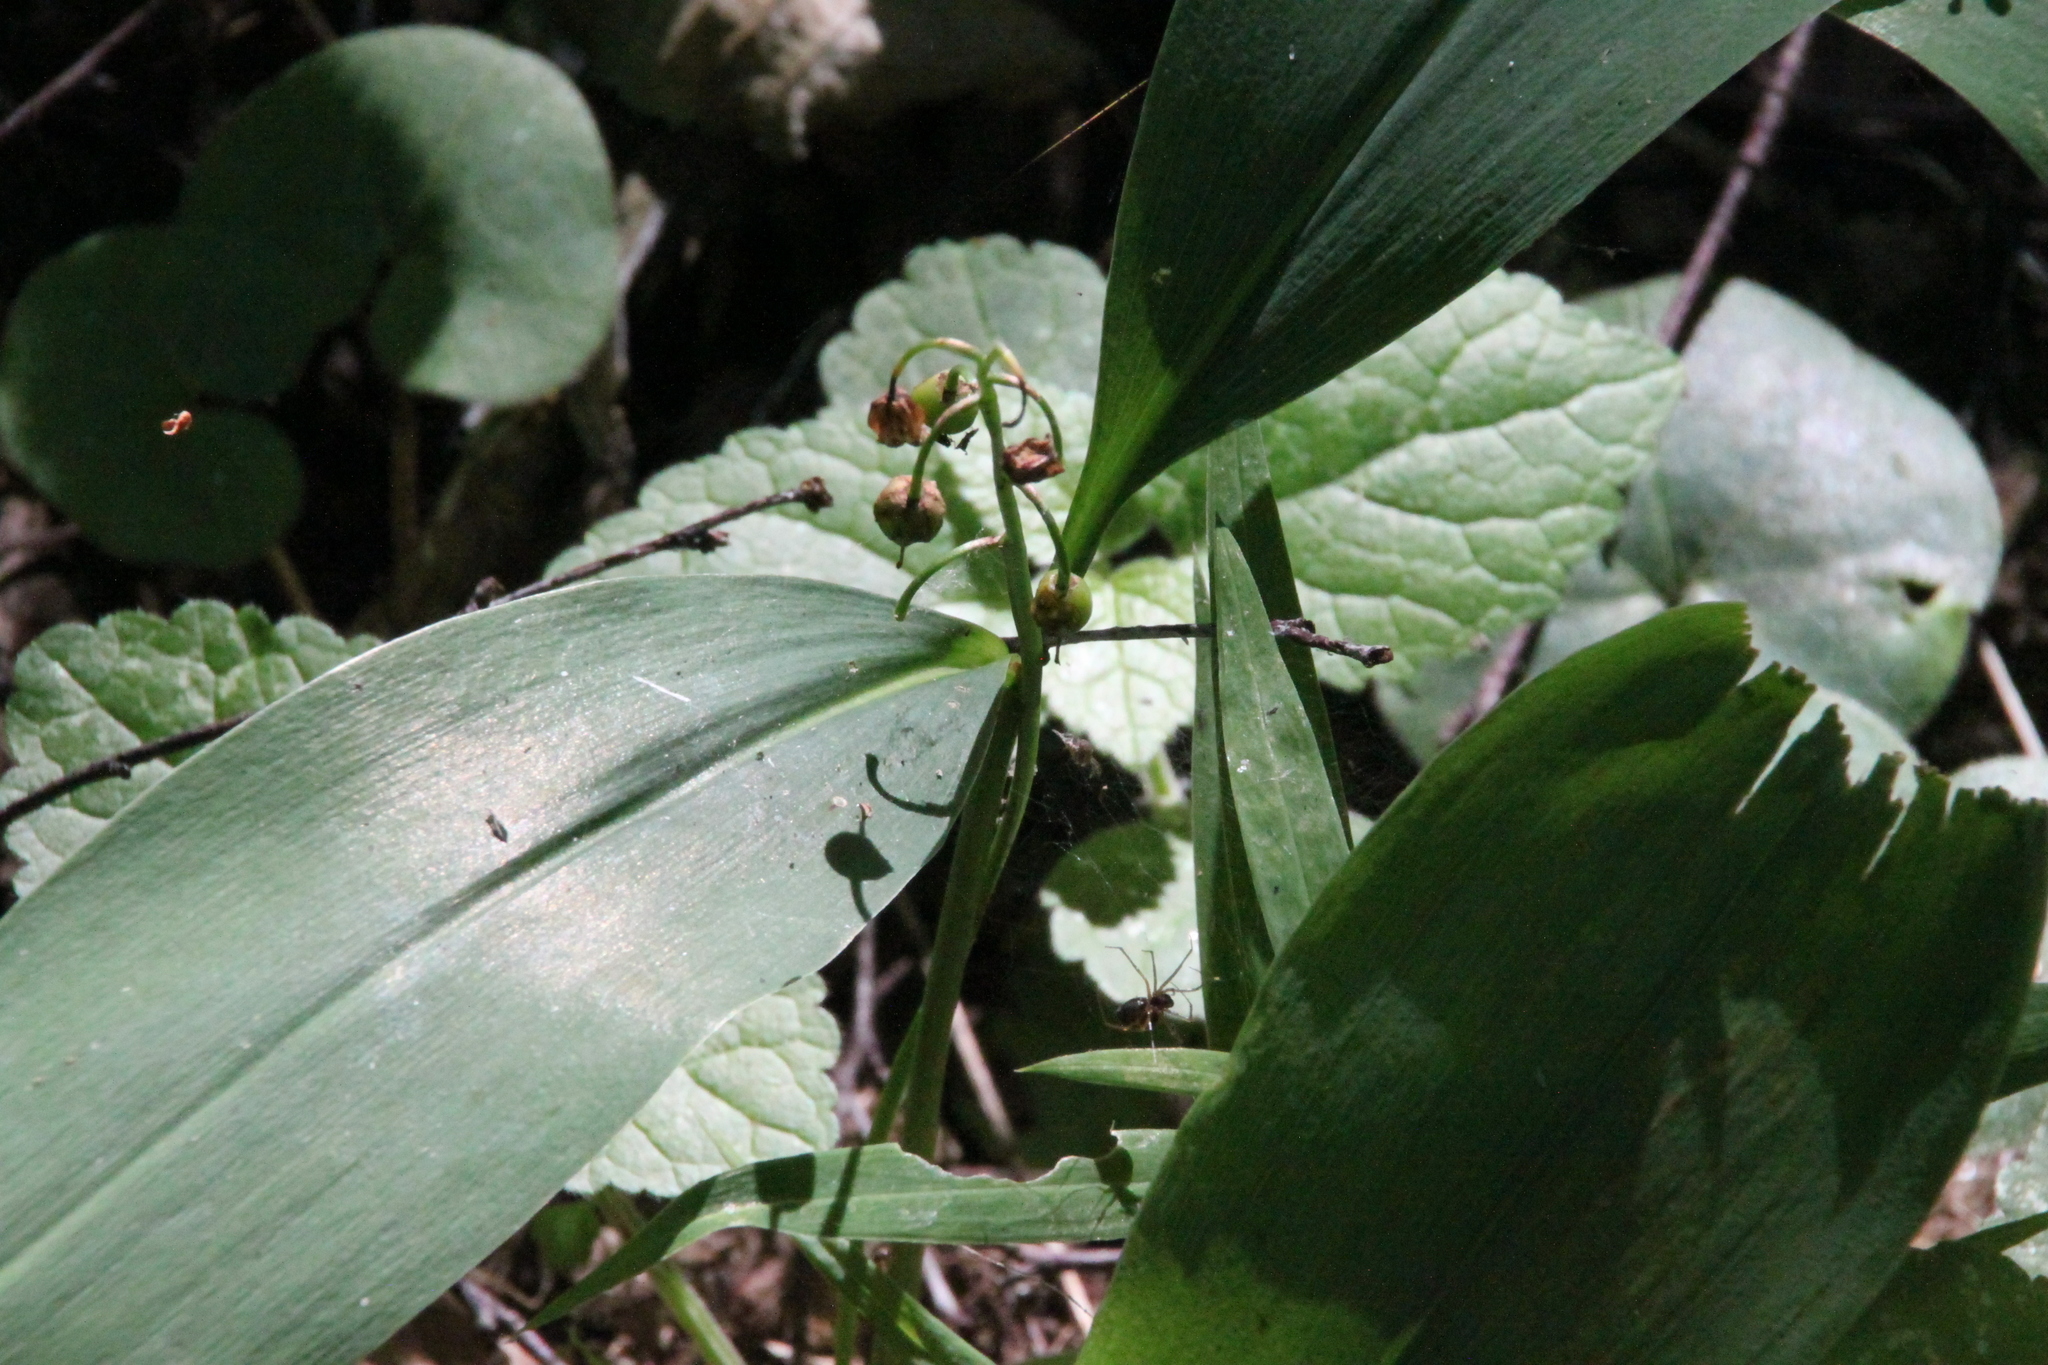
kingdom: Plantae
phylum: Tracheophyta
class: Liliopsida
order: Asparagales
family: Asparagaceae
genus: Convallaria
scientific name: Convallaria majalis
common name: Lily-of-the-valley
